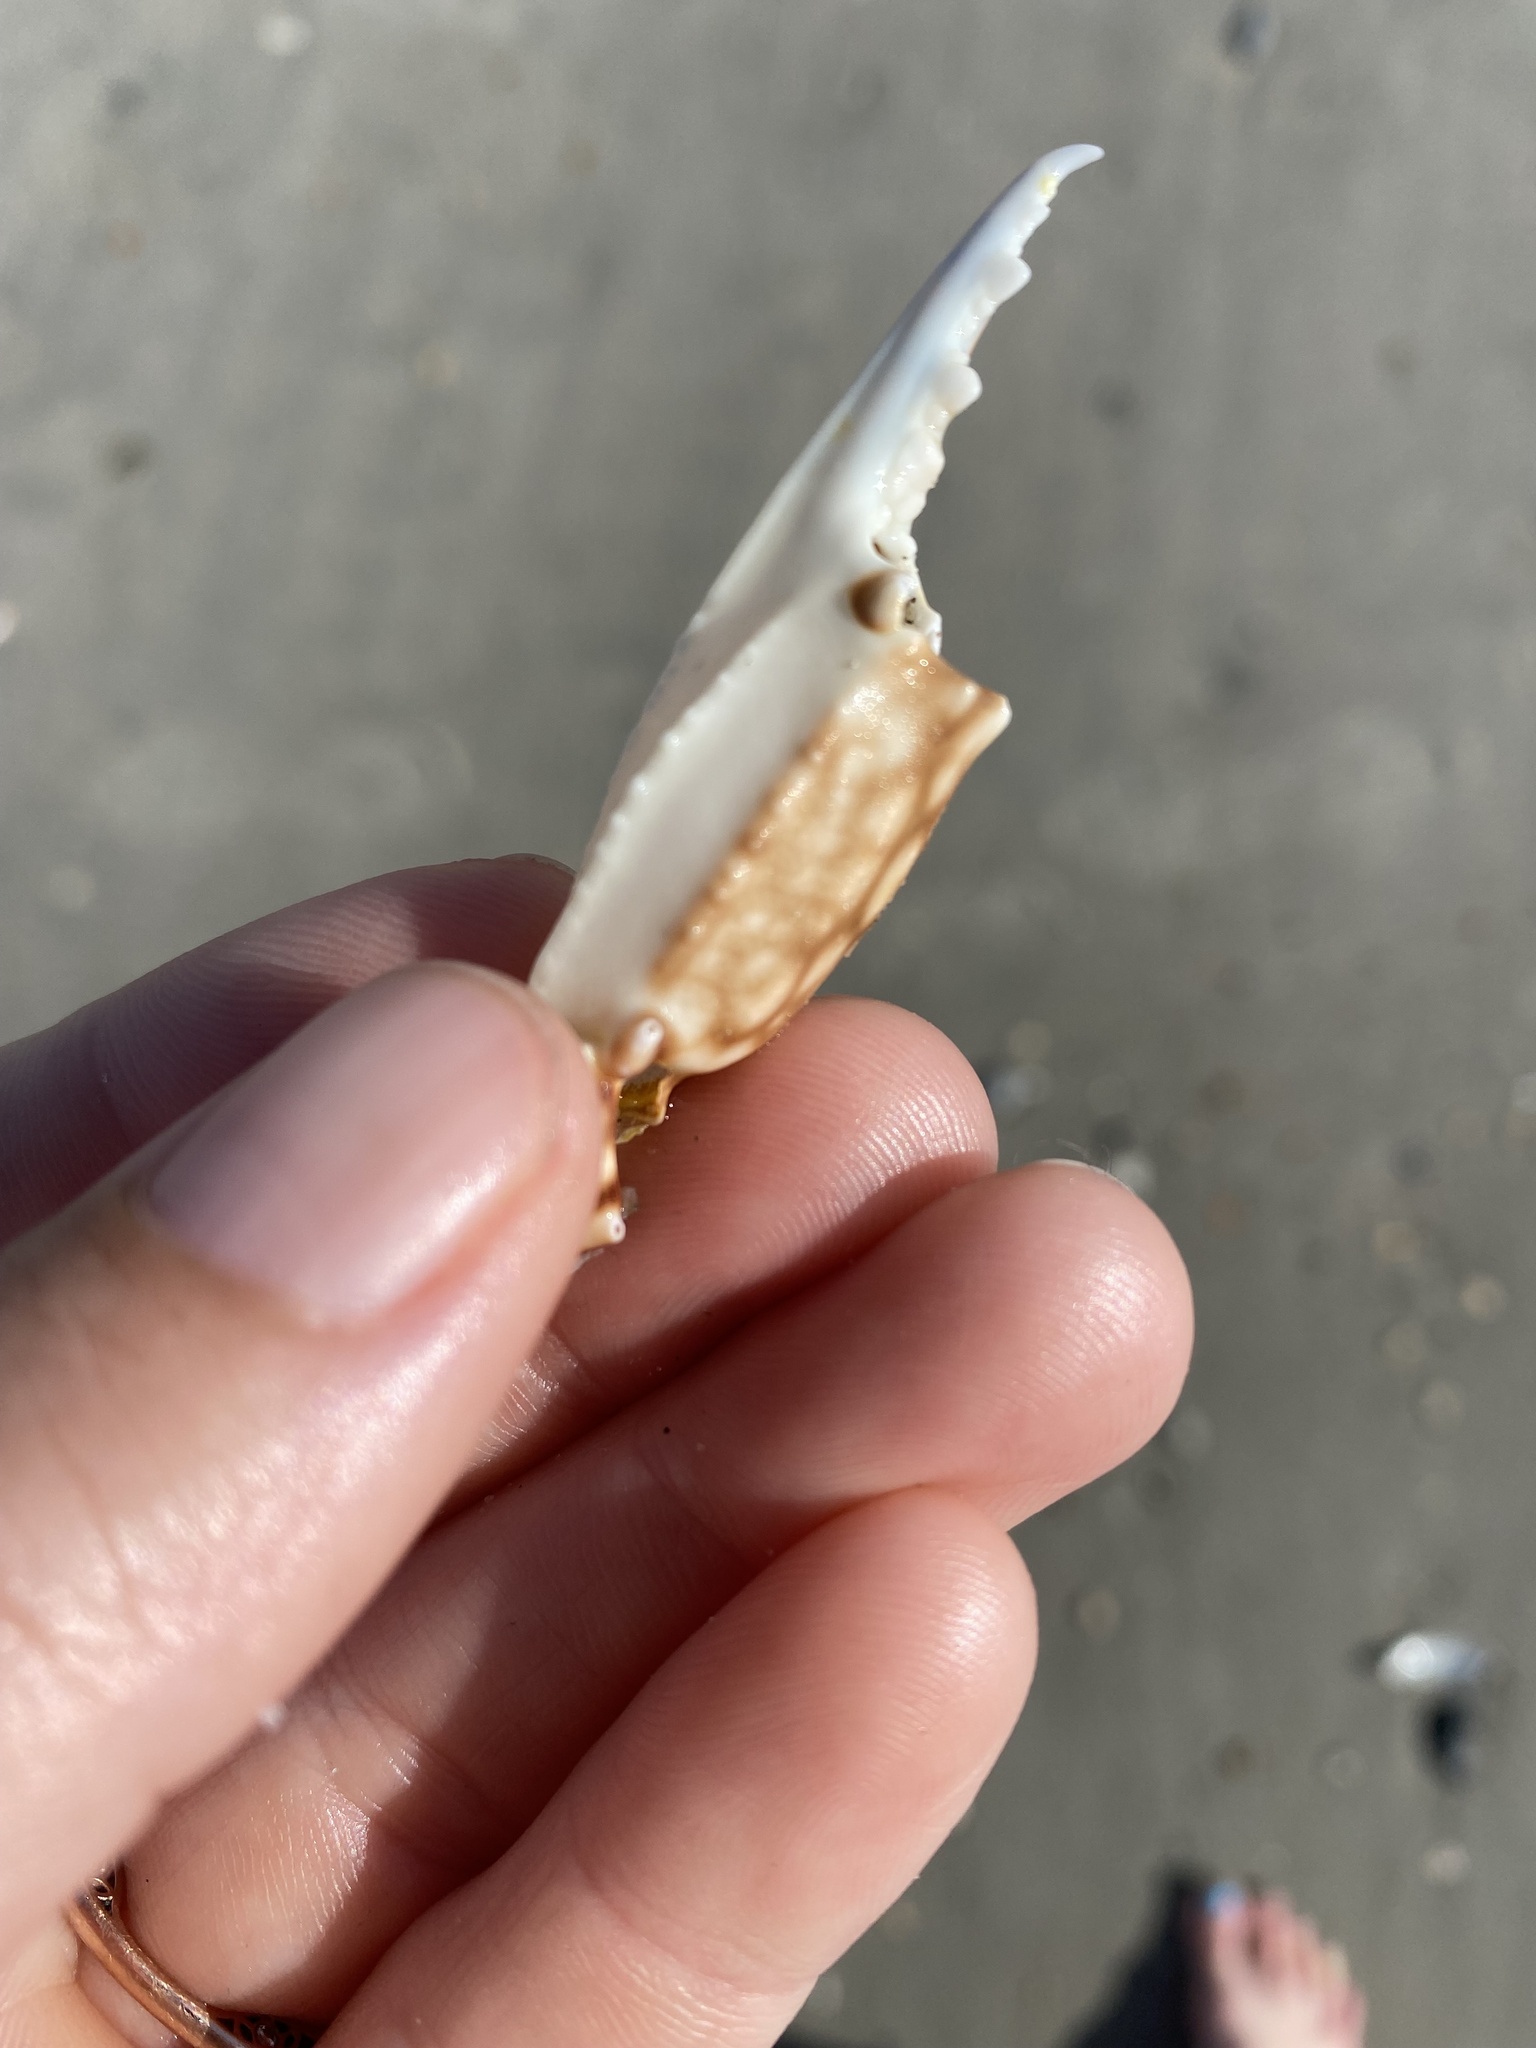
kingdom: Animalia
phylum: Arthropoda
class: Malacostraca
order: Decapoda
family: Portunidae
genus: Arenaeus
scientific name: Arenaeus cribrarius
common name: Speckled crab
